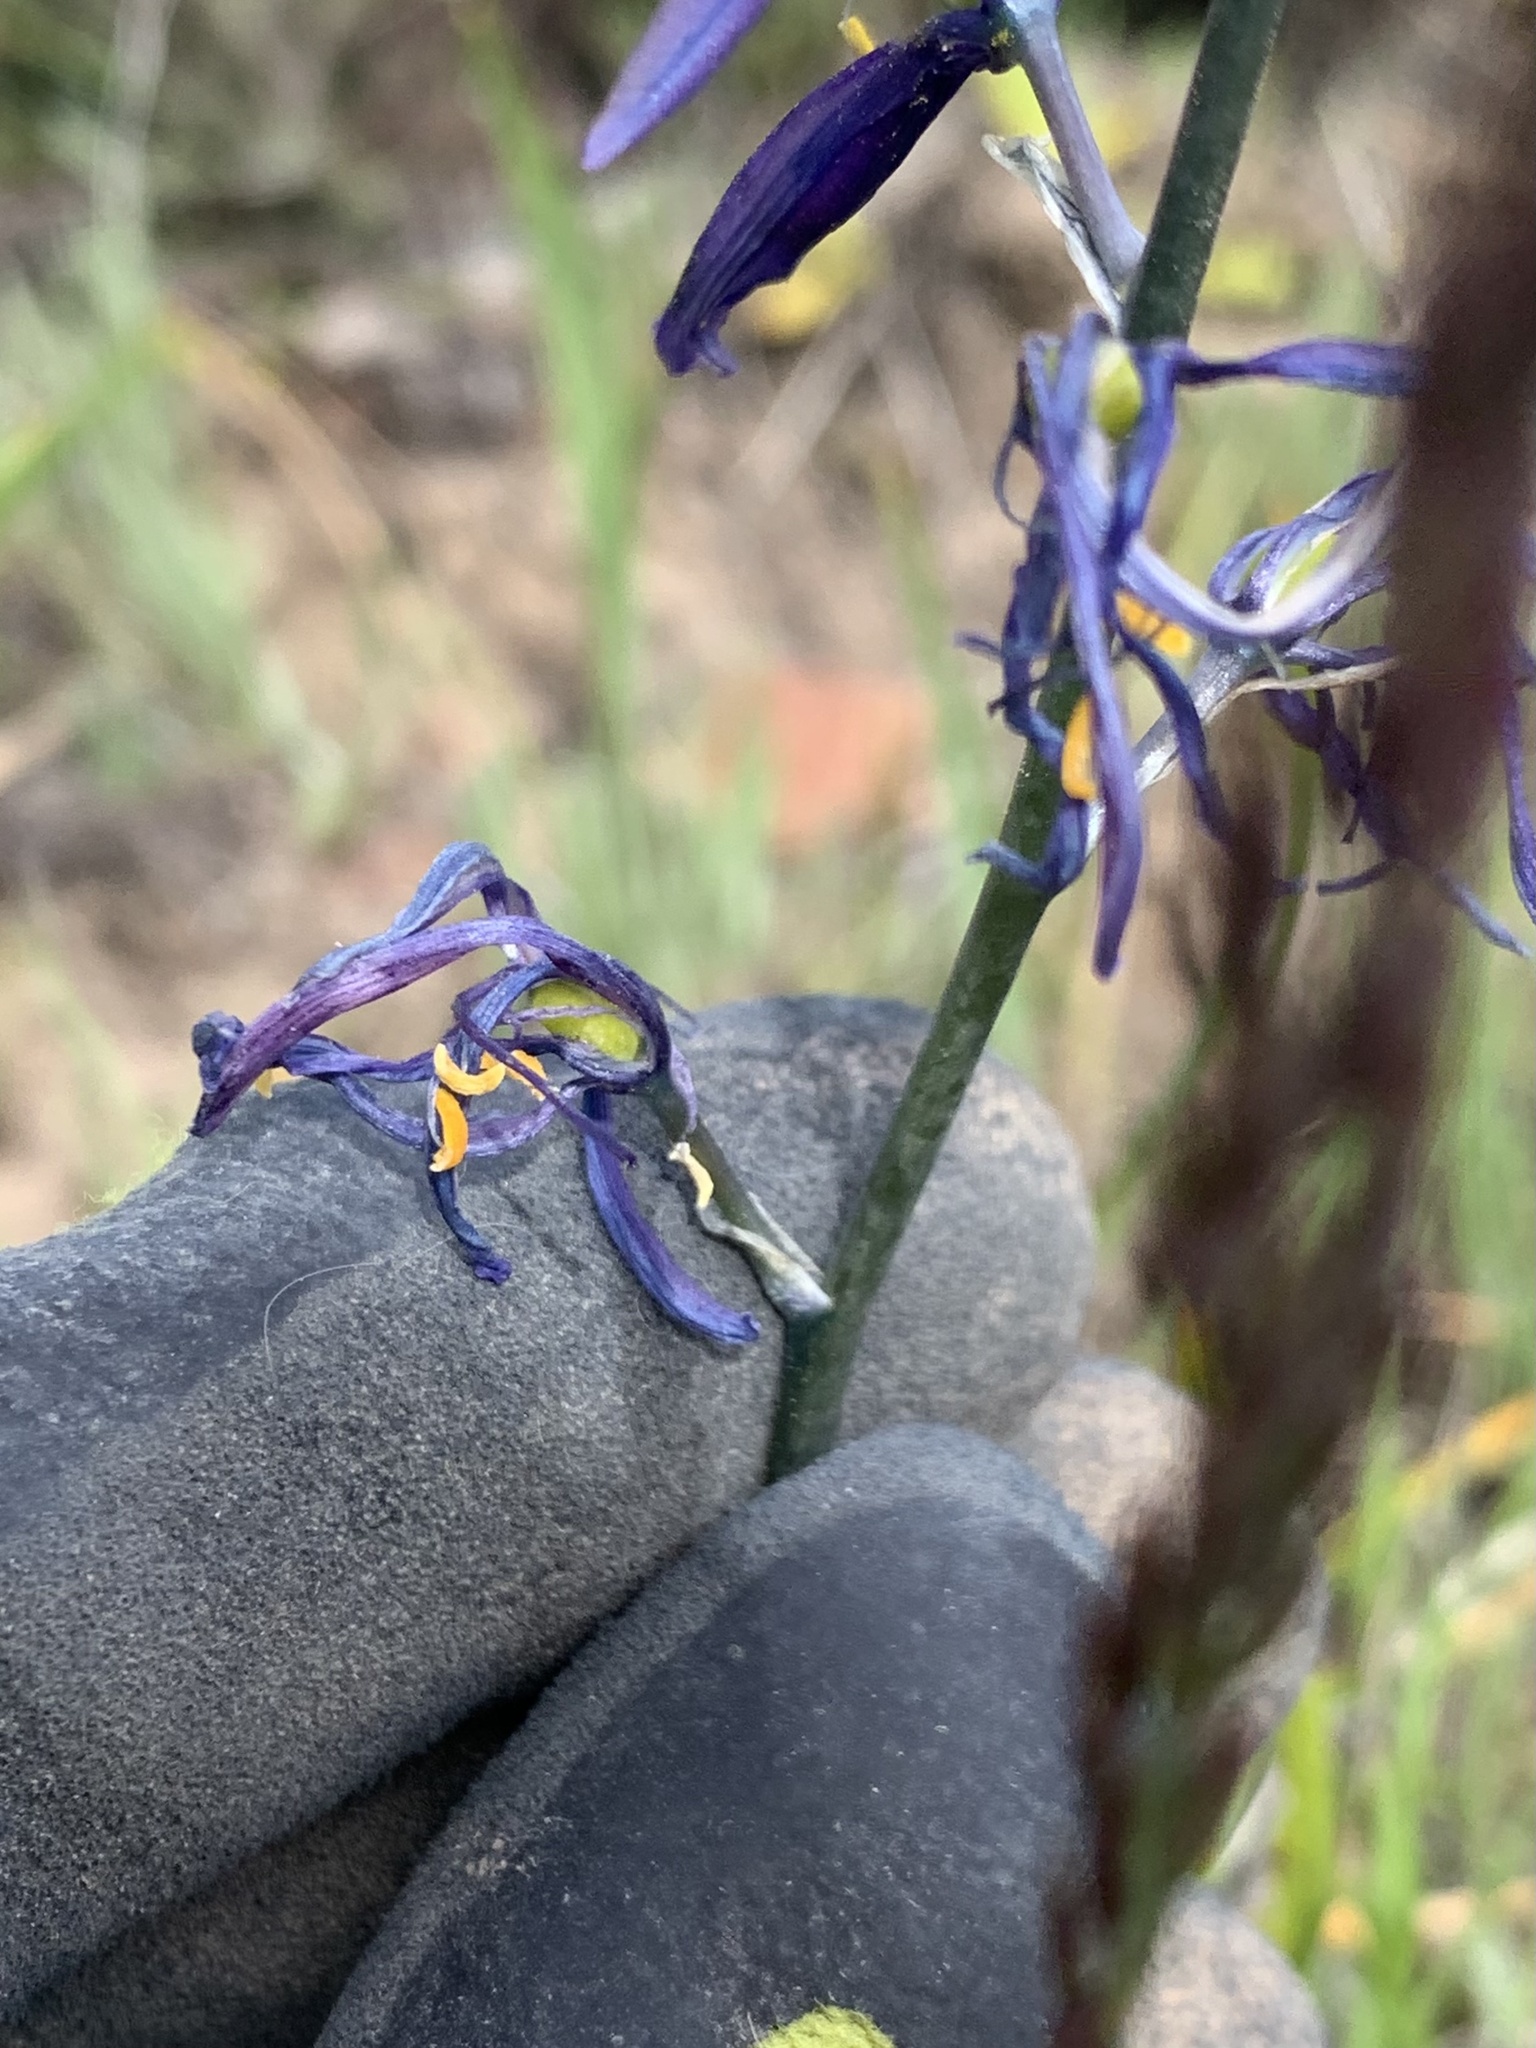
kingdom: Plantae
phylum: Tracheophyta
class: Liliopsida
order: Asparagales
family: Asparagaceae
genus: Camassia
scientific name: Camassia quamash
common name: Common camas
